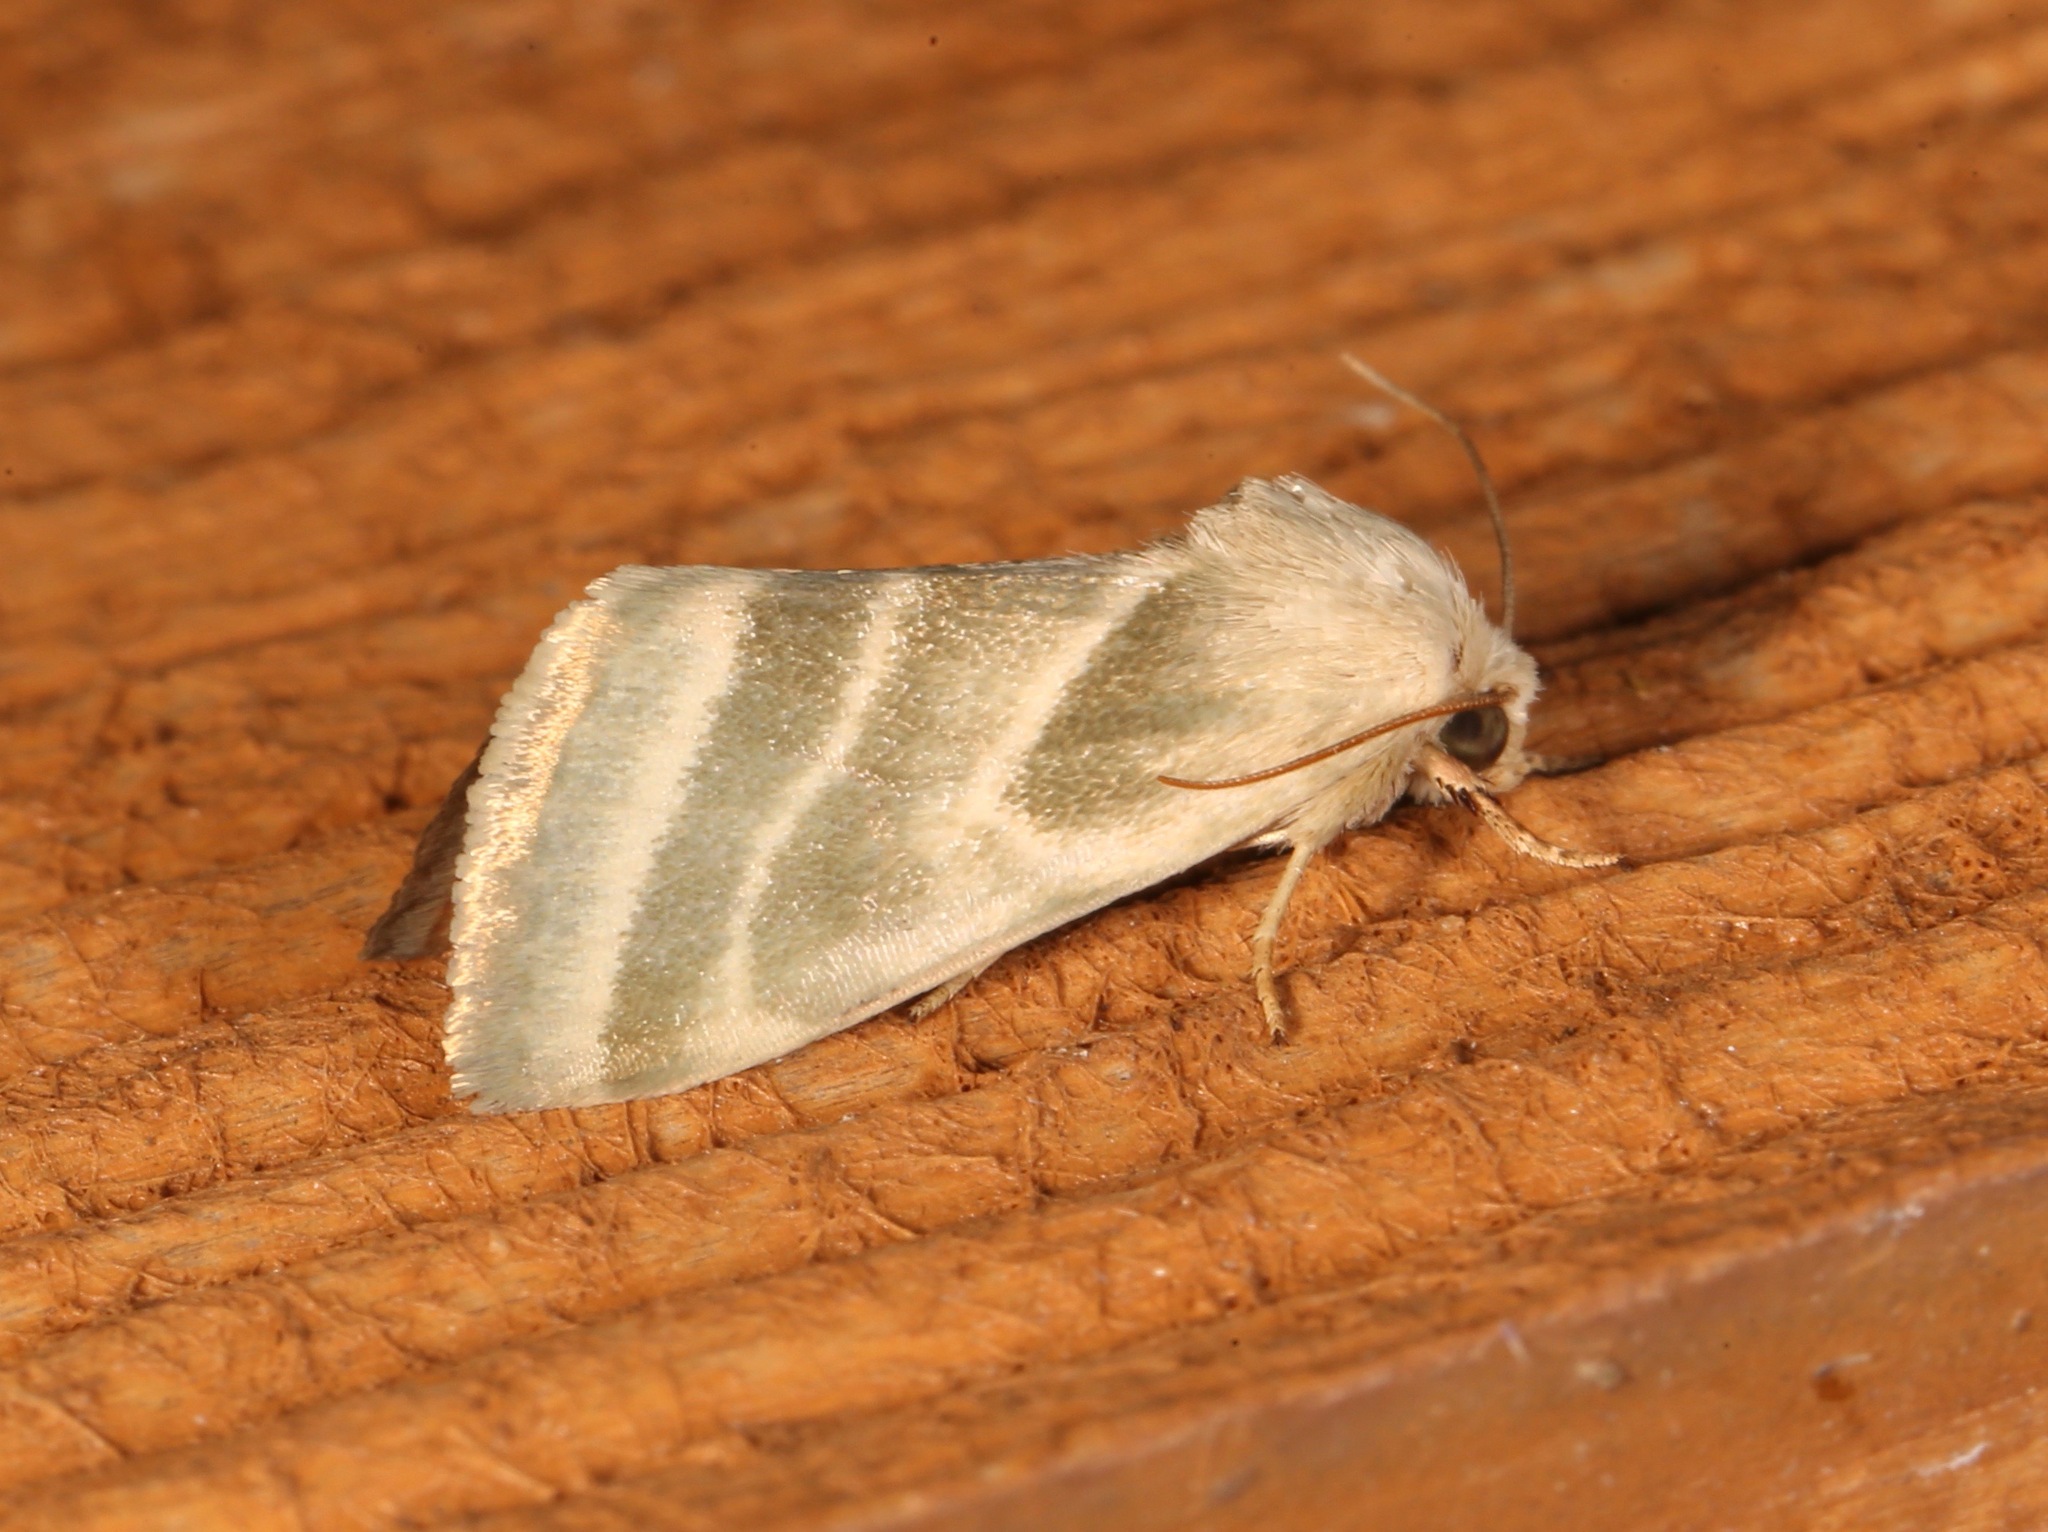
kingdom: Animalia
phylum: Arthropoda
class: Insecta
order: Lepidoptera
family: Noctuidae
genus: Schinia
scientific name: Schinia trifascia
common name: Three-lined flower moth
